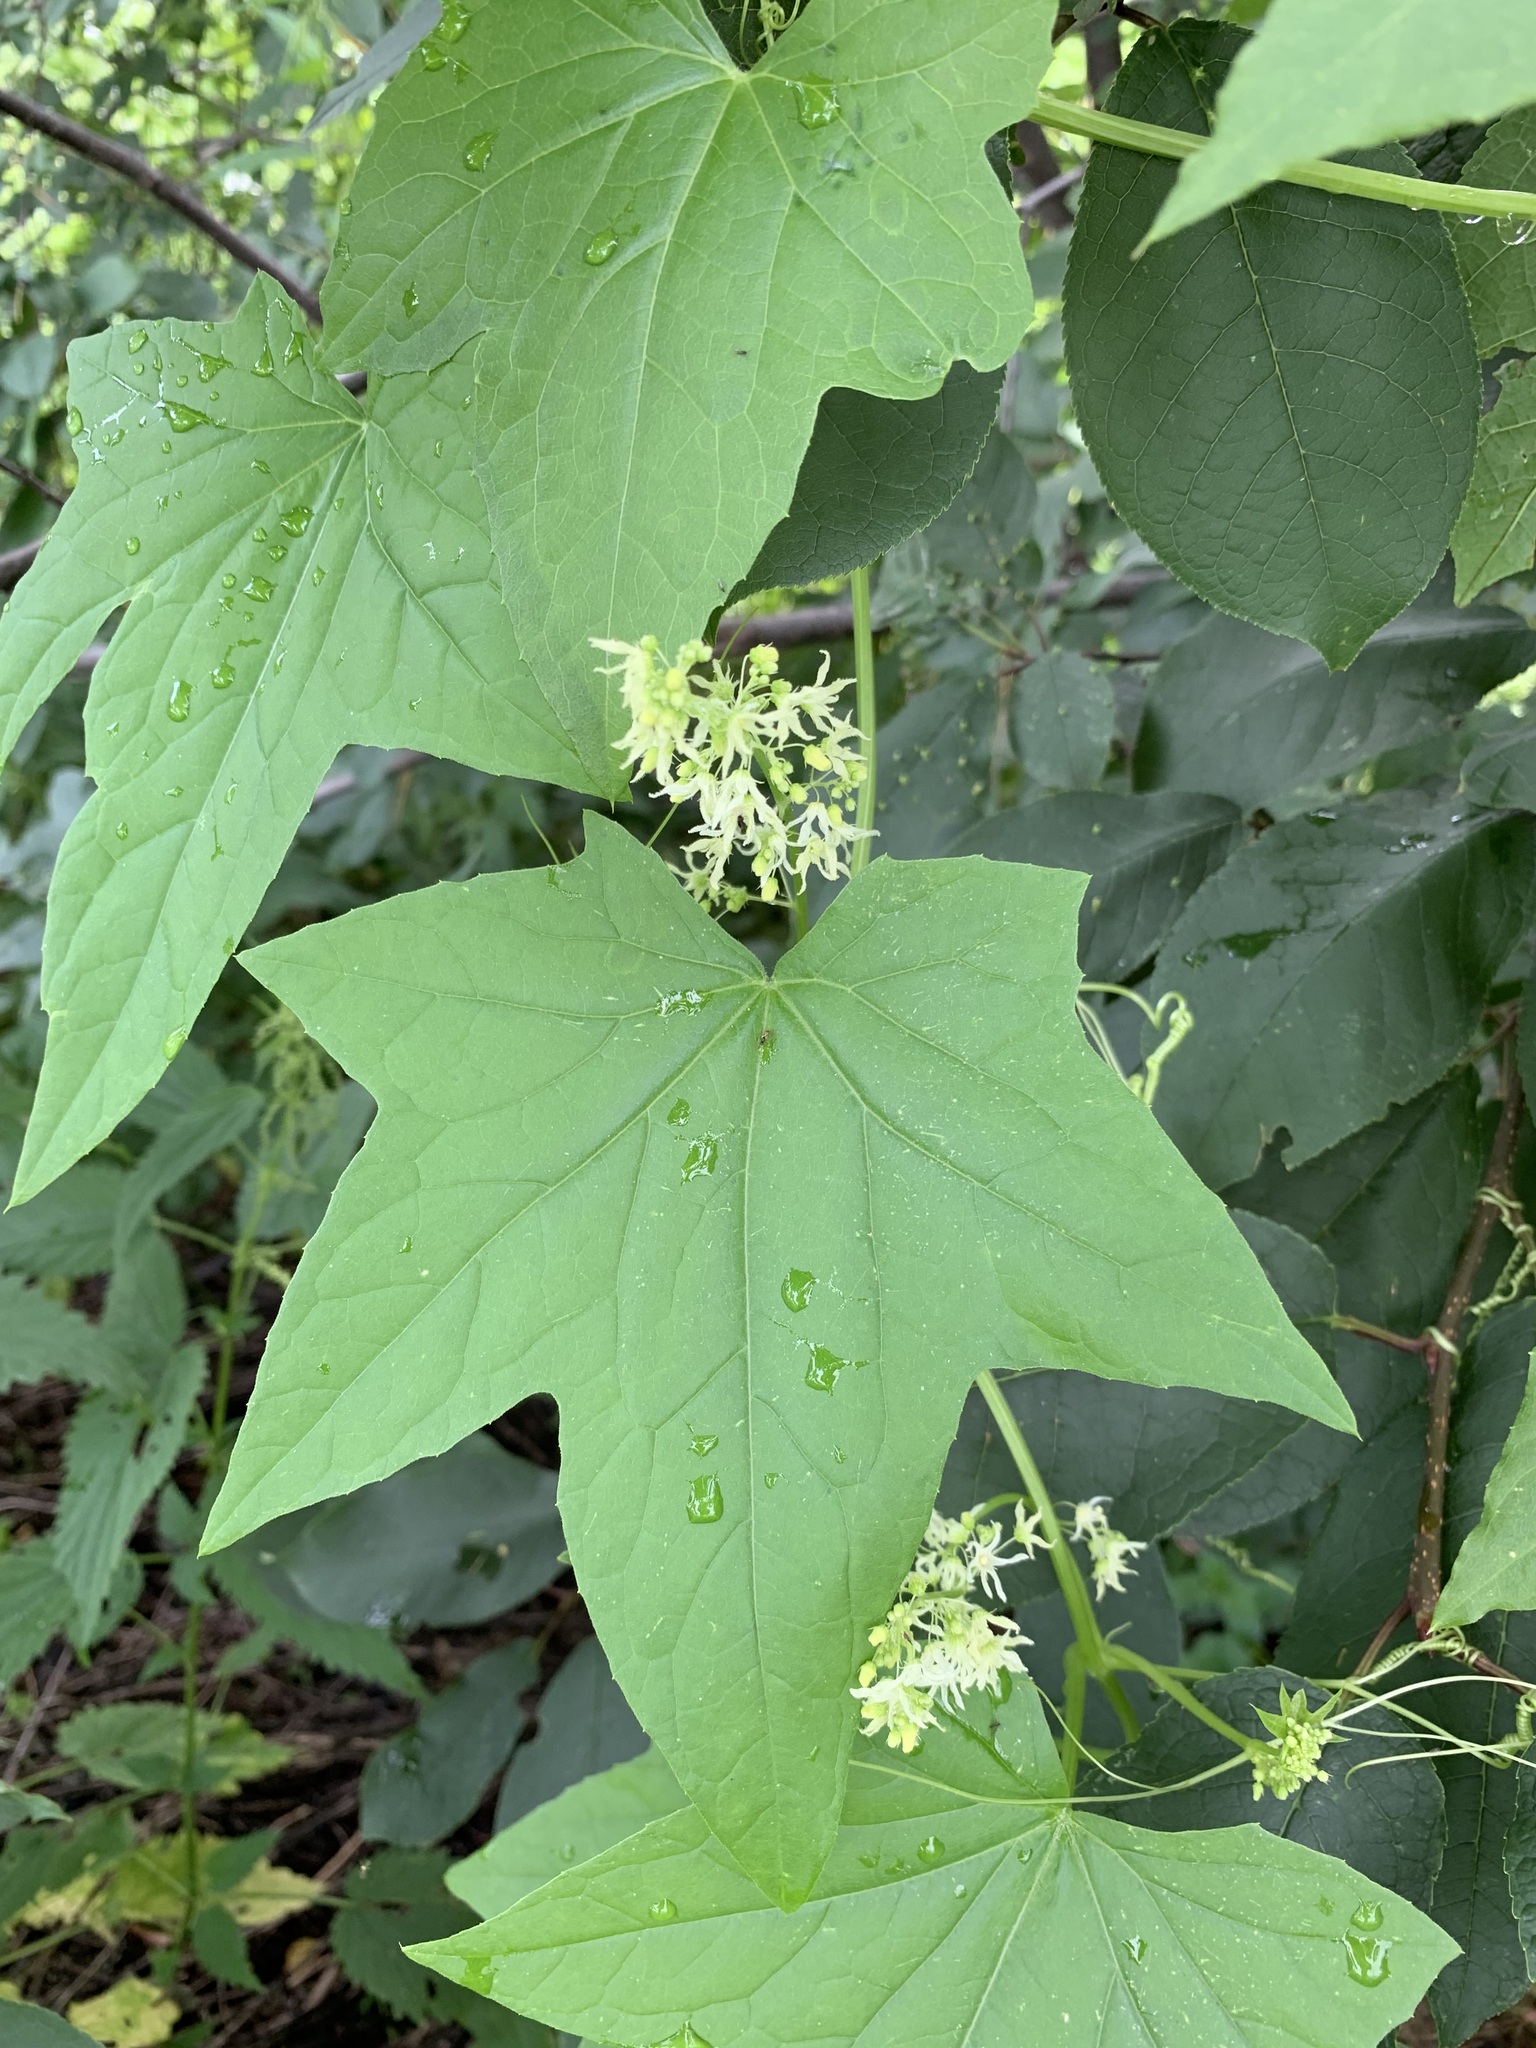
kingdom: Plantae
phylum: Tracheophyta
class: Magnoliopsida
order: Cucurbitales
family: Cucurbitaceae
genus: Echinocystis
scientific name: Echinocystis lobata
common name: Wild cucumber
